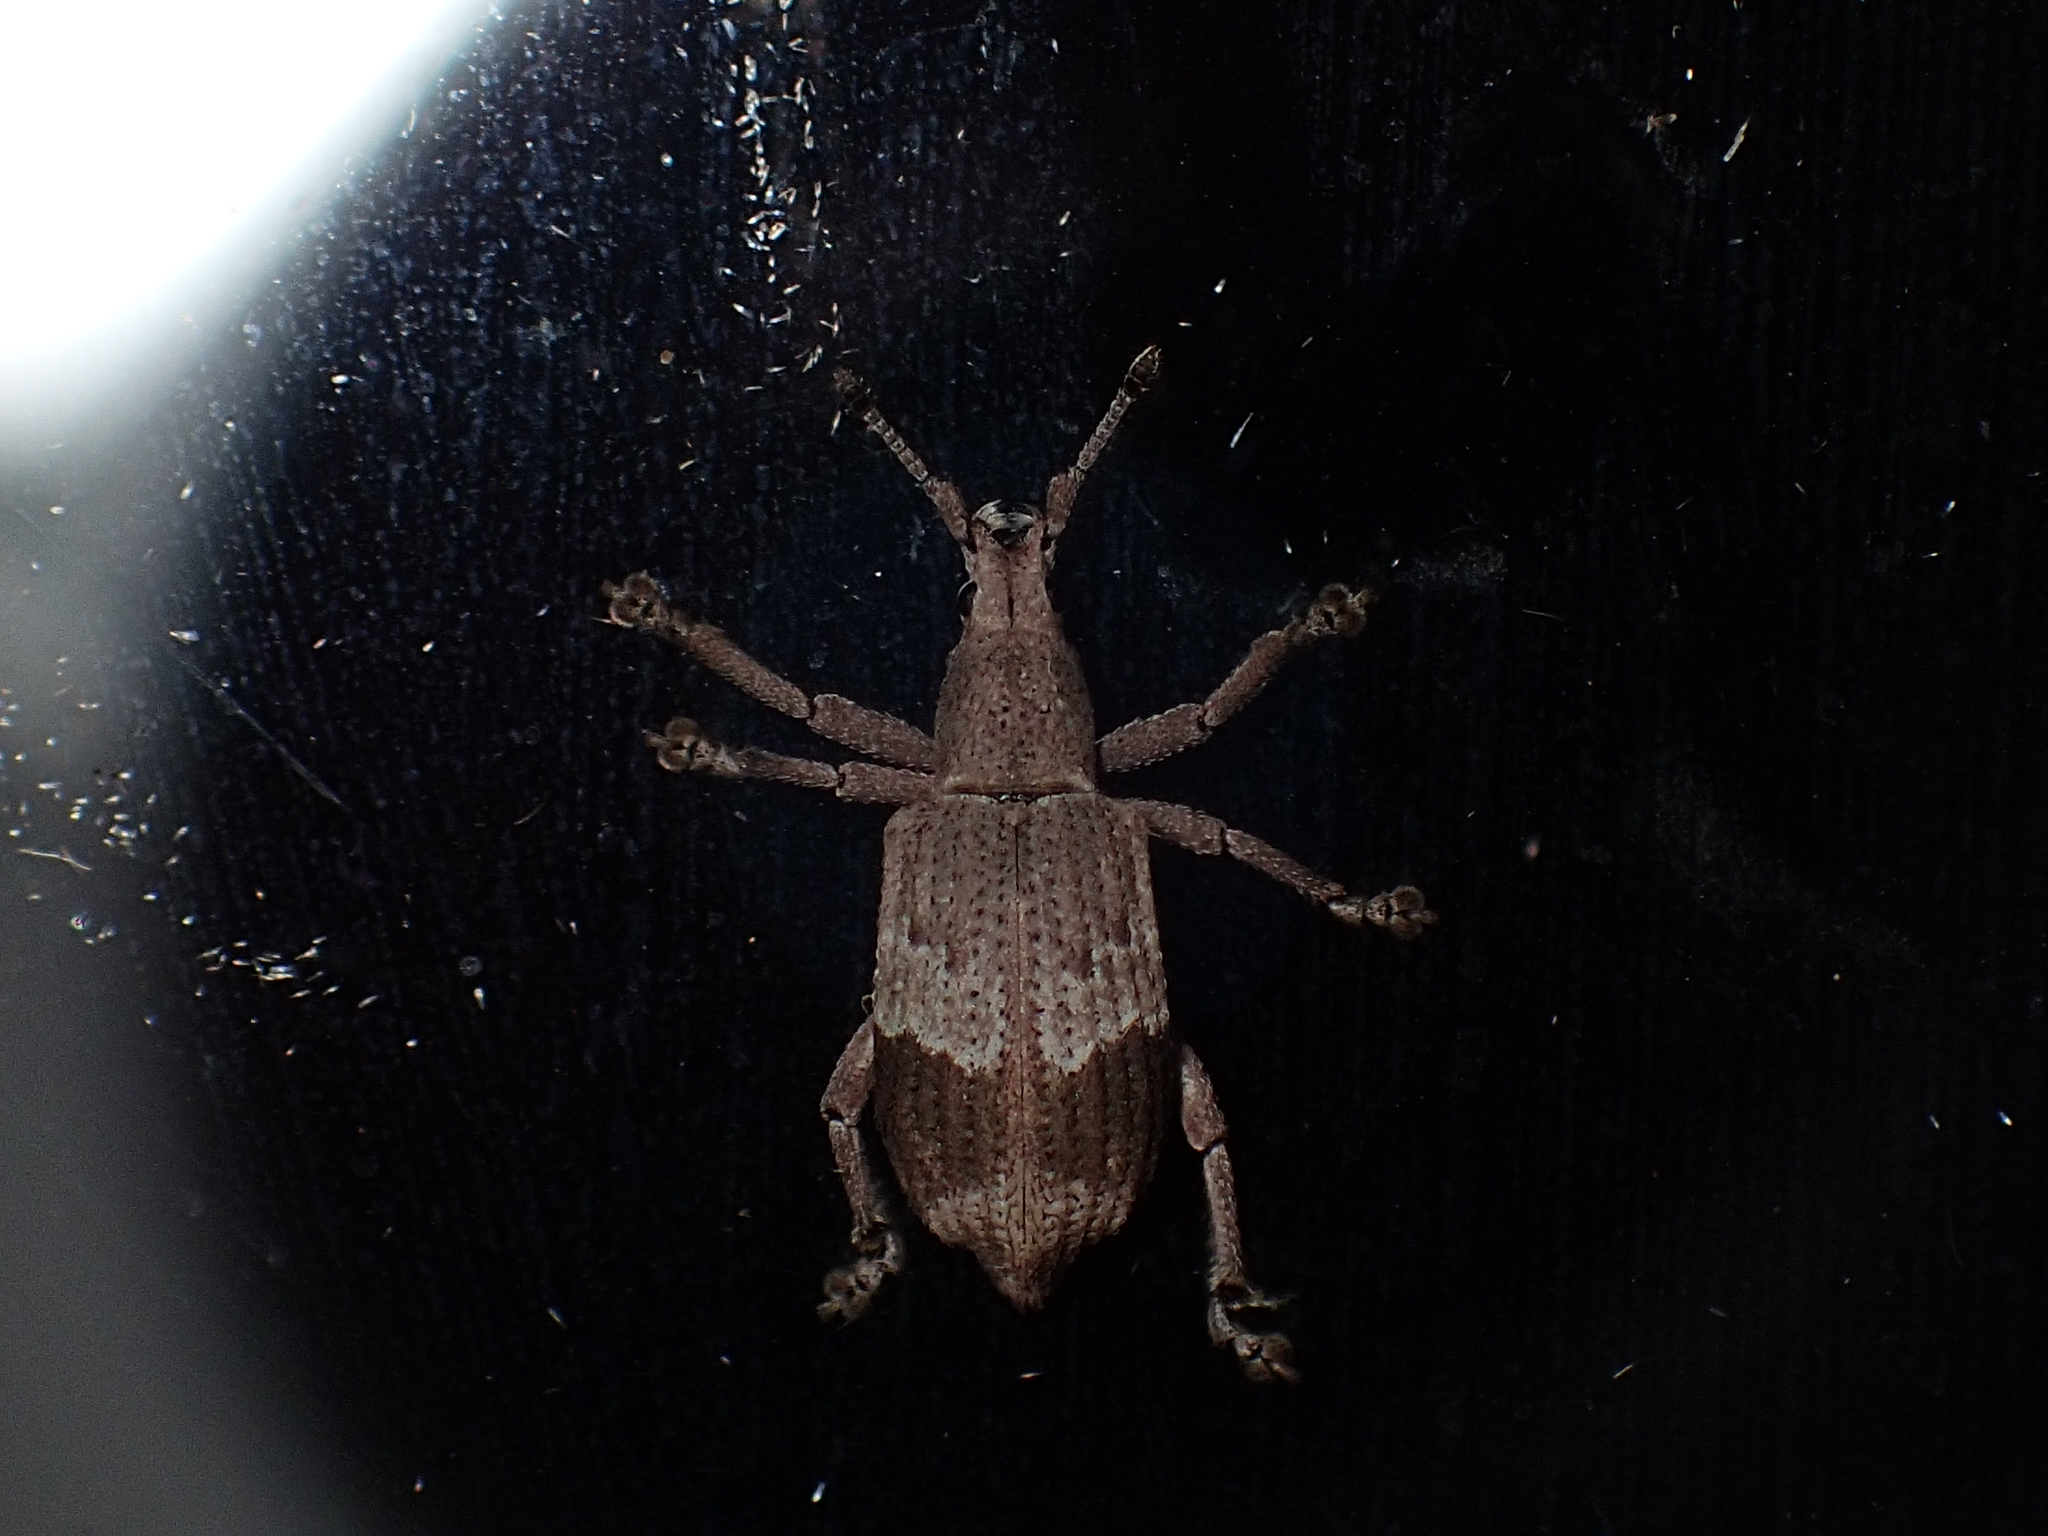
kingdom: Animalia
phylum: Arthropoda
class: Insecta
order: Coleoptera
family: Curculionidae
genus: Brachystylus
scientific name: Brachystylus
